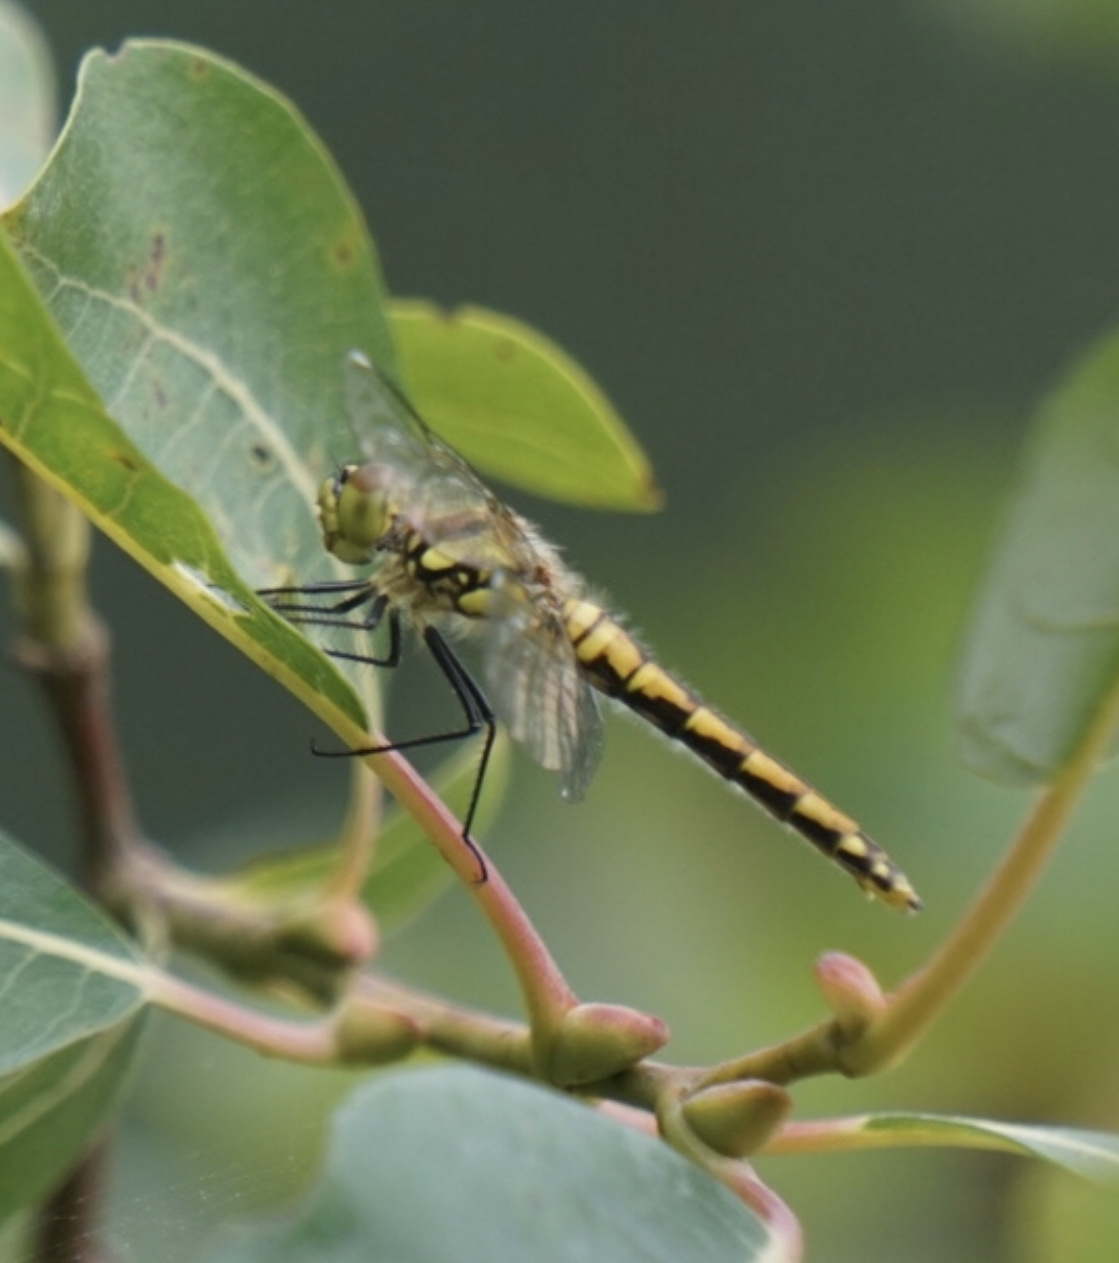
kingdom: Animalia
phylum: Arthropoda
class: Insecta
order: Odonata
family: Libellulidae
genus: Sympetrum
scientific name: Sympetrum danae
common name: Black darter
